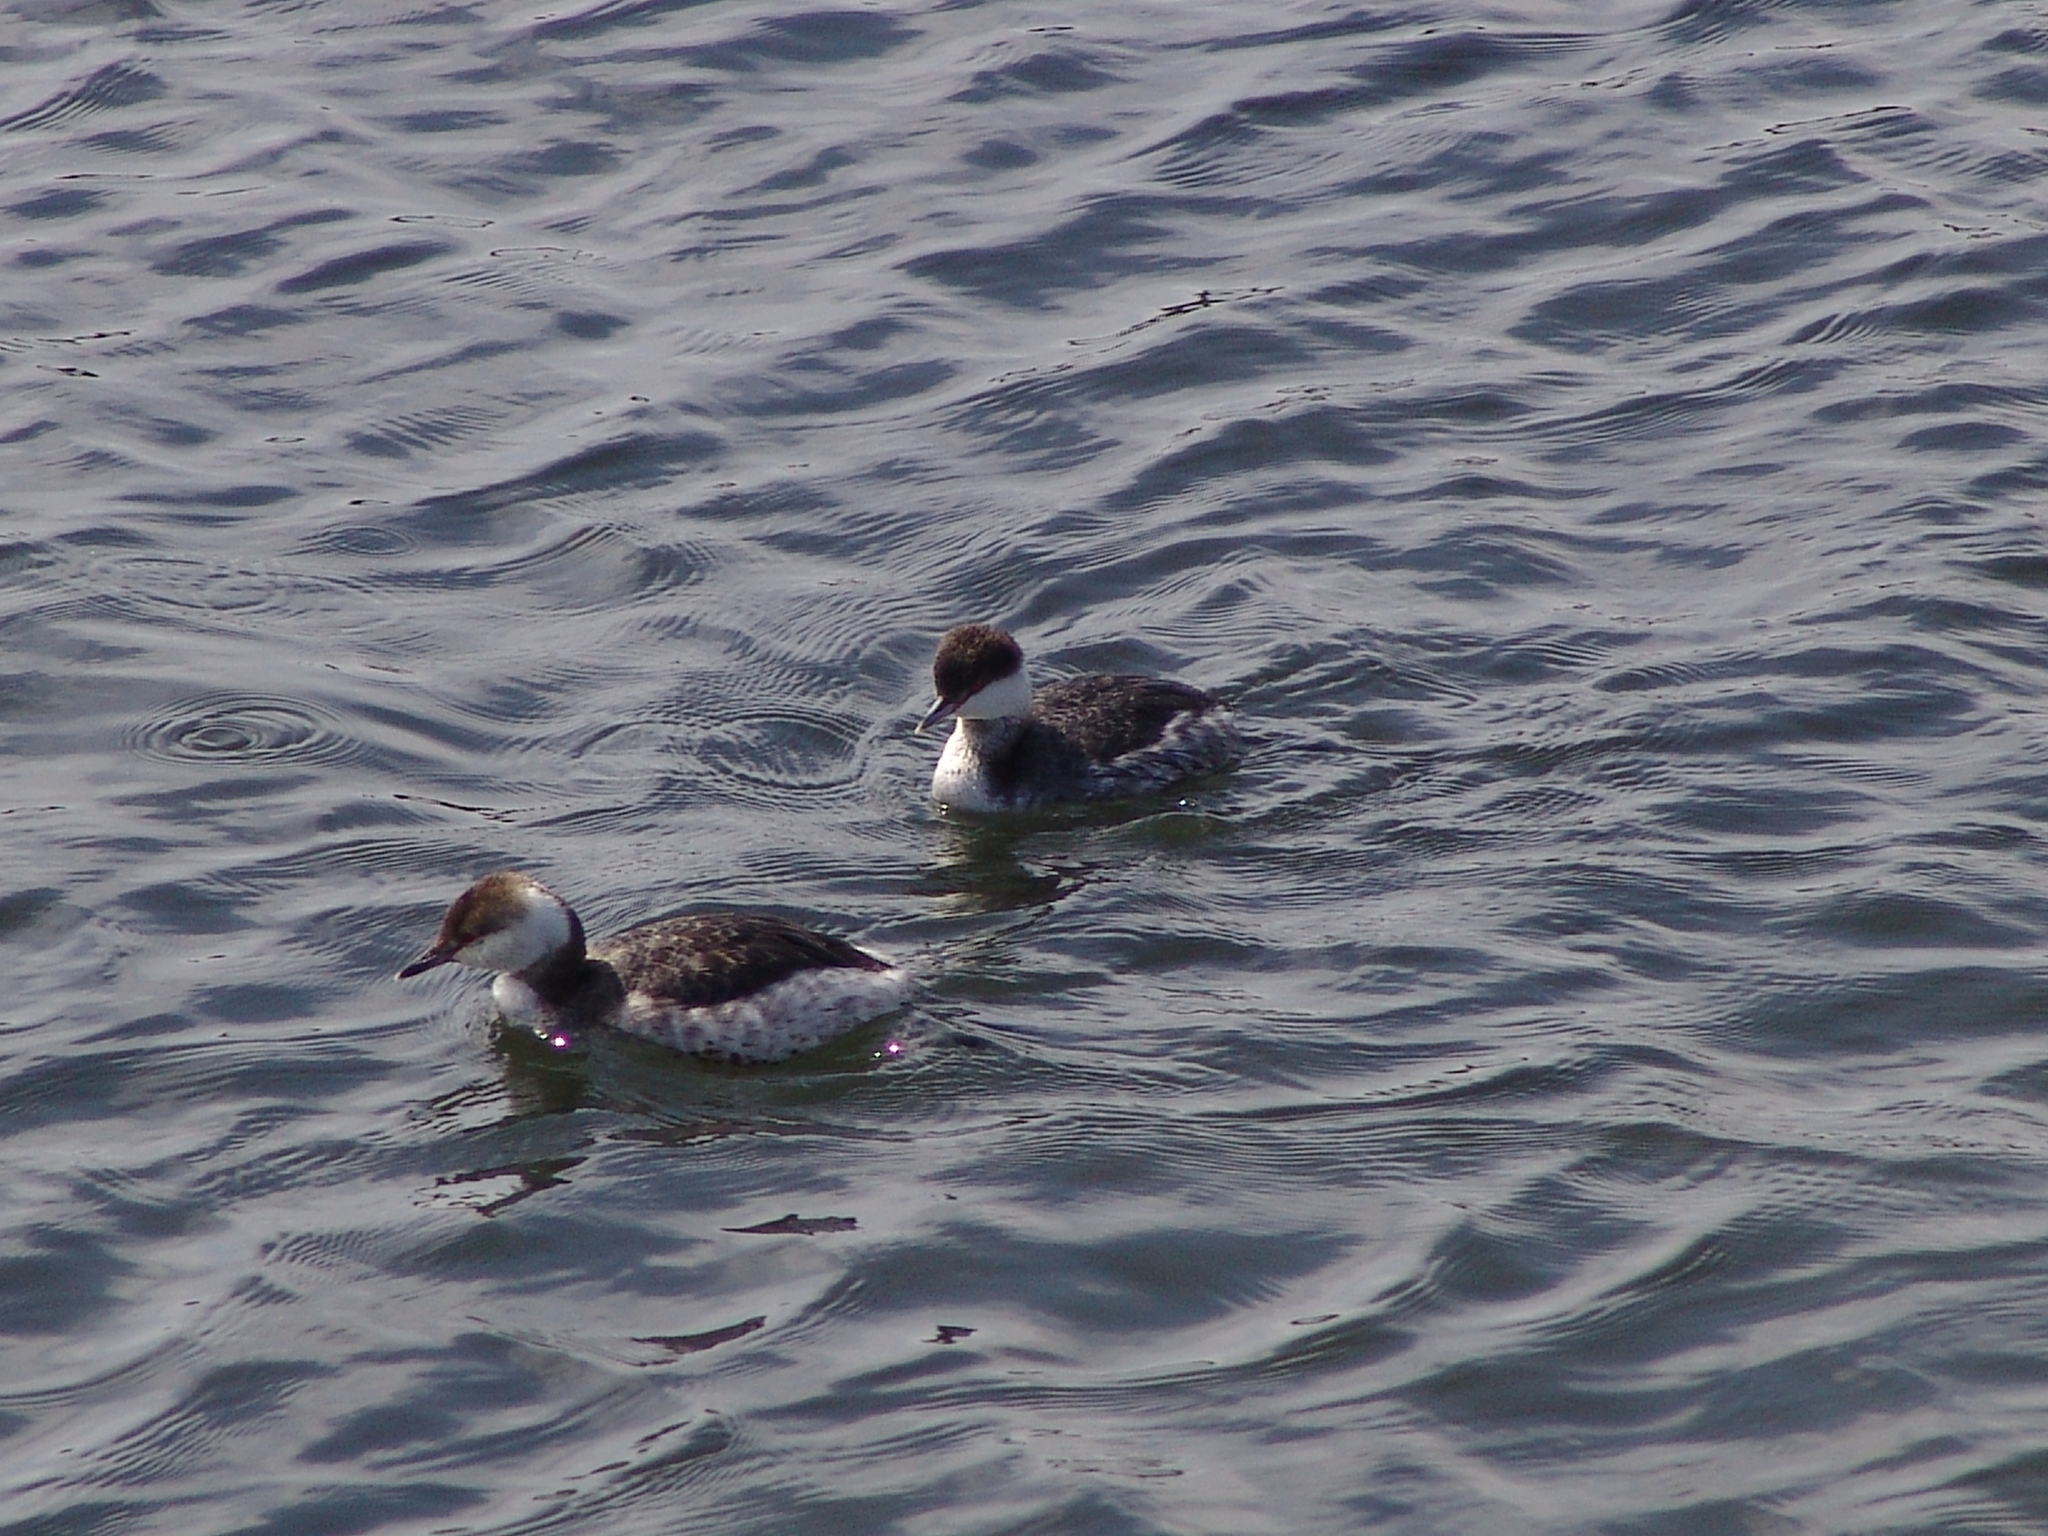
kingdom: Animalia
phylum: Chordata
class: Aves
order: Podicipediformes
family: Podicipedidae
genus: Podiceps
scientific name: Podiceps auritus
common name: Horned grebe
